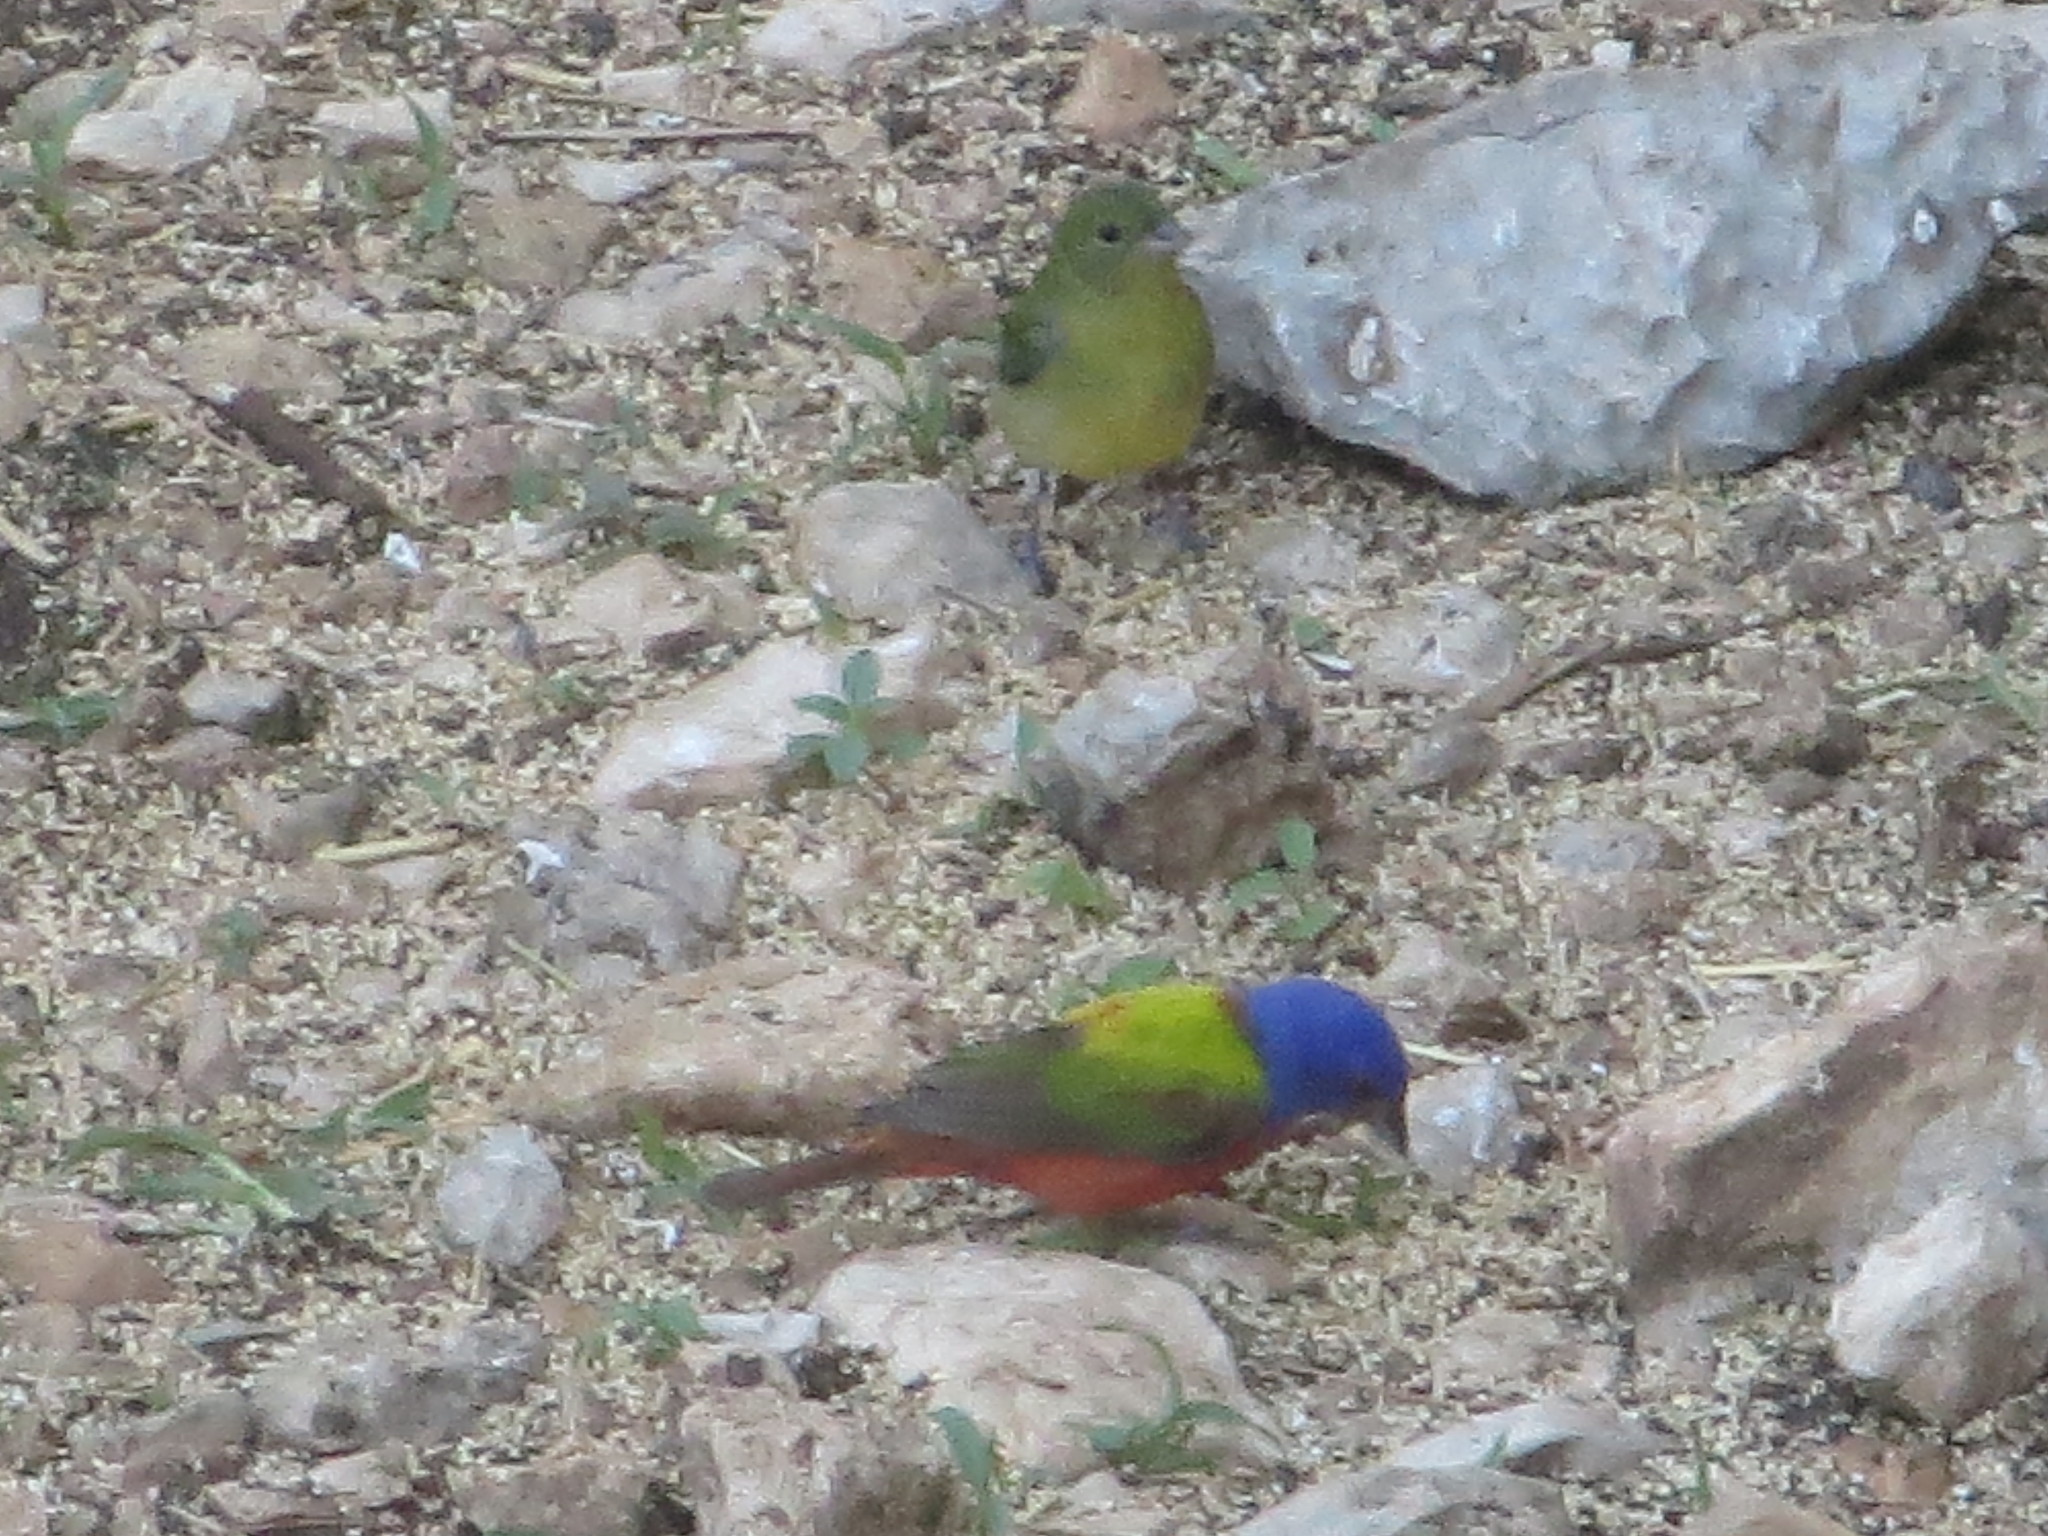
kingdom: Animalia
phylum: Chordata
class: Aves
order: Passeriformes
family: Cardinalidae
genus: Passerina
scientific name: Passerina ciris
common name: Painted bunting
